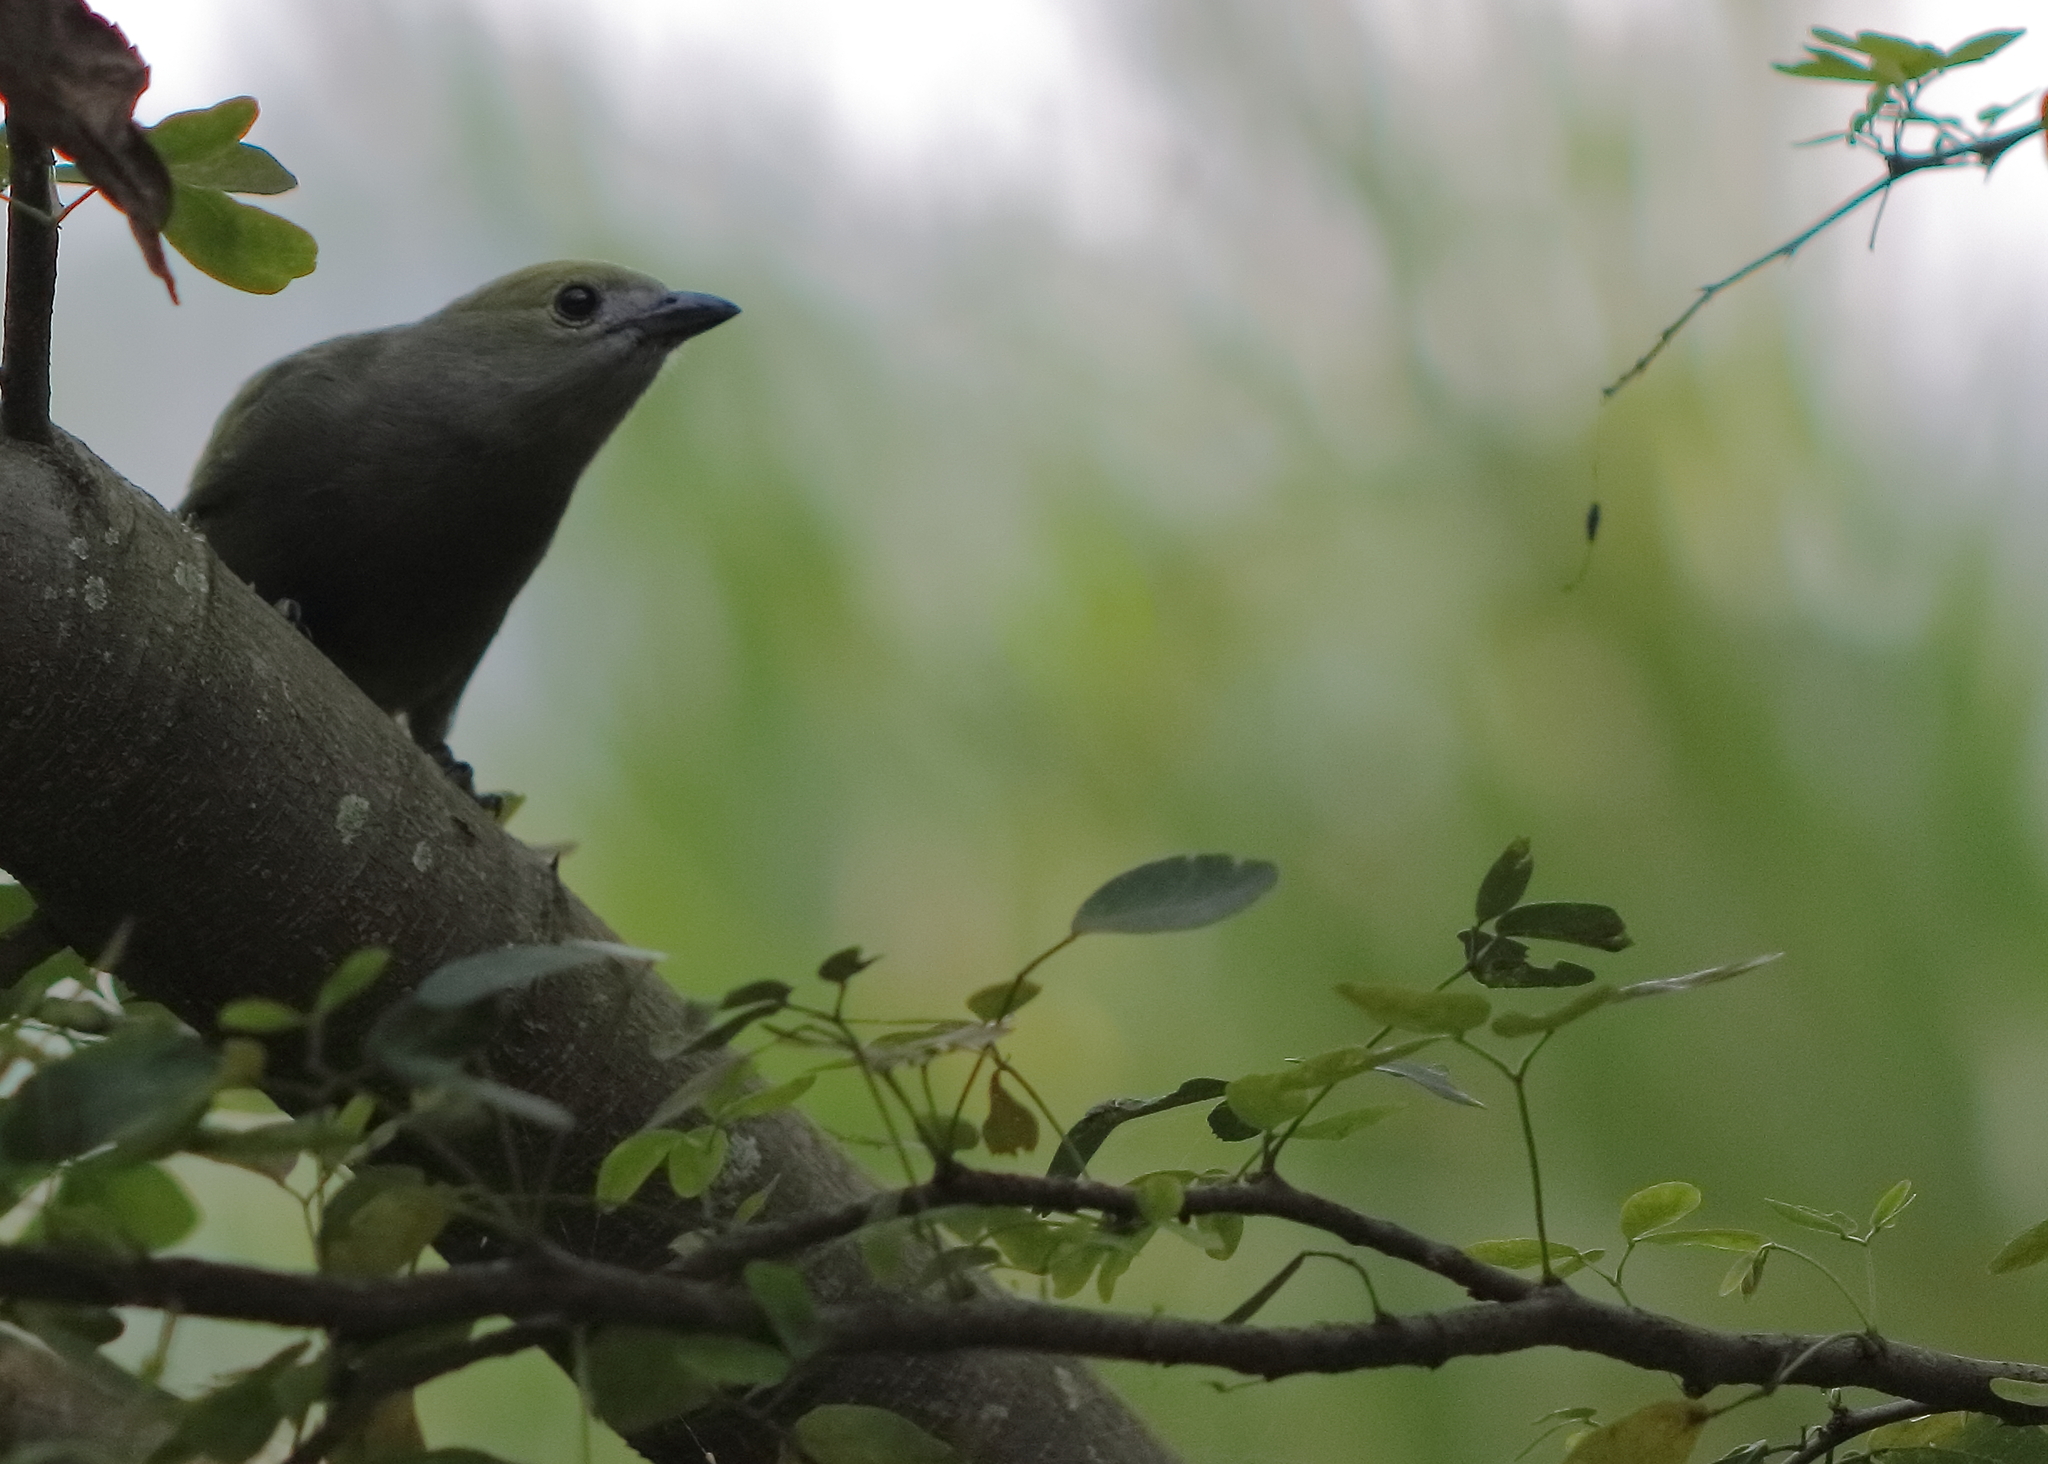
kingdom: Animalia
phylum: Chordata
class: Aves
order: Passeriformes
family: Thraupidae
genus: Thraupis
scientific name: Thraupis palmarum
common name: Palm tanager
